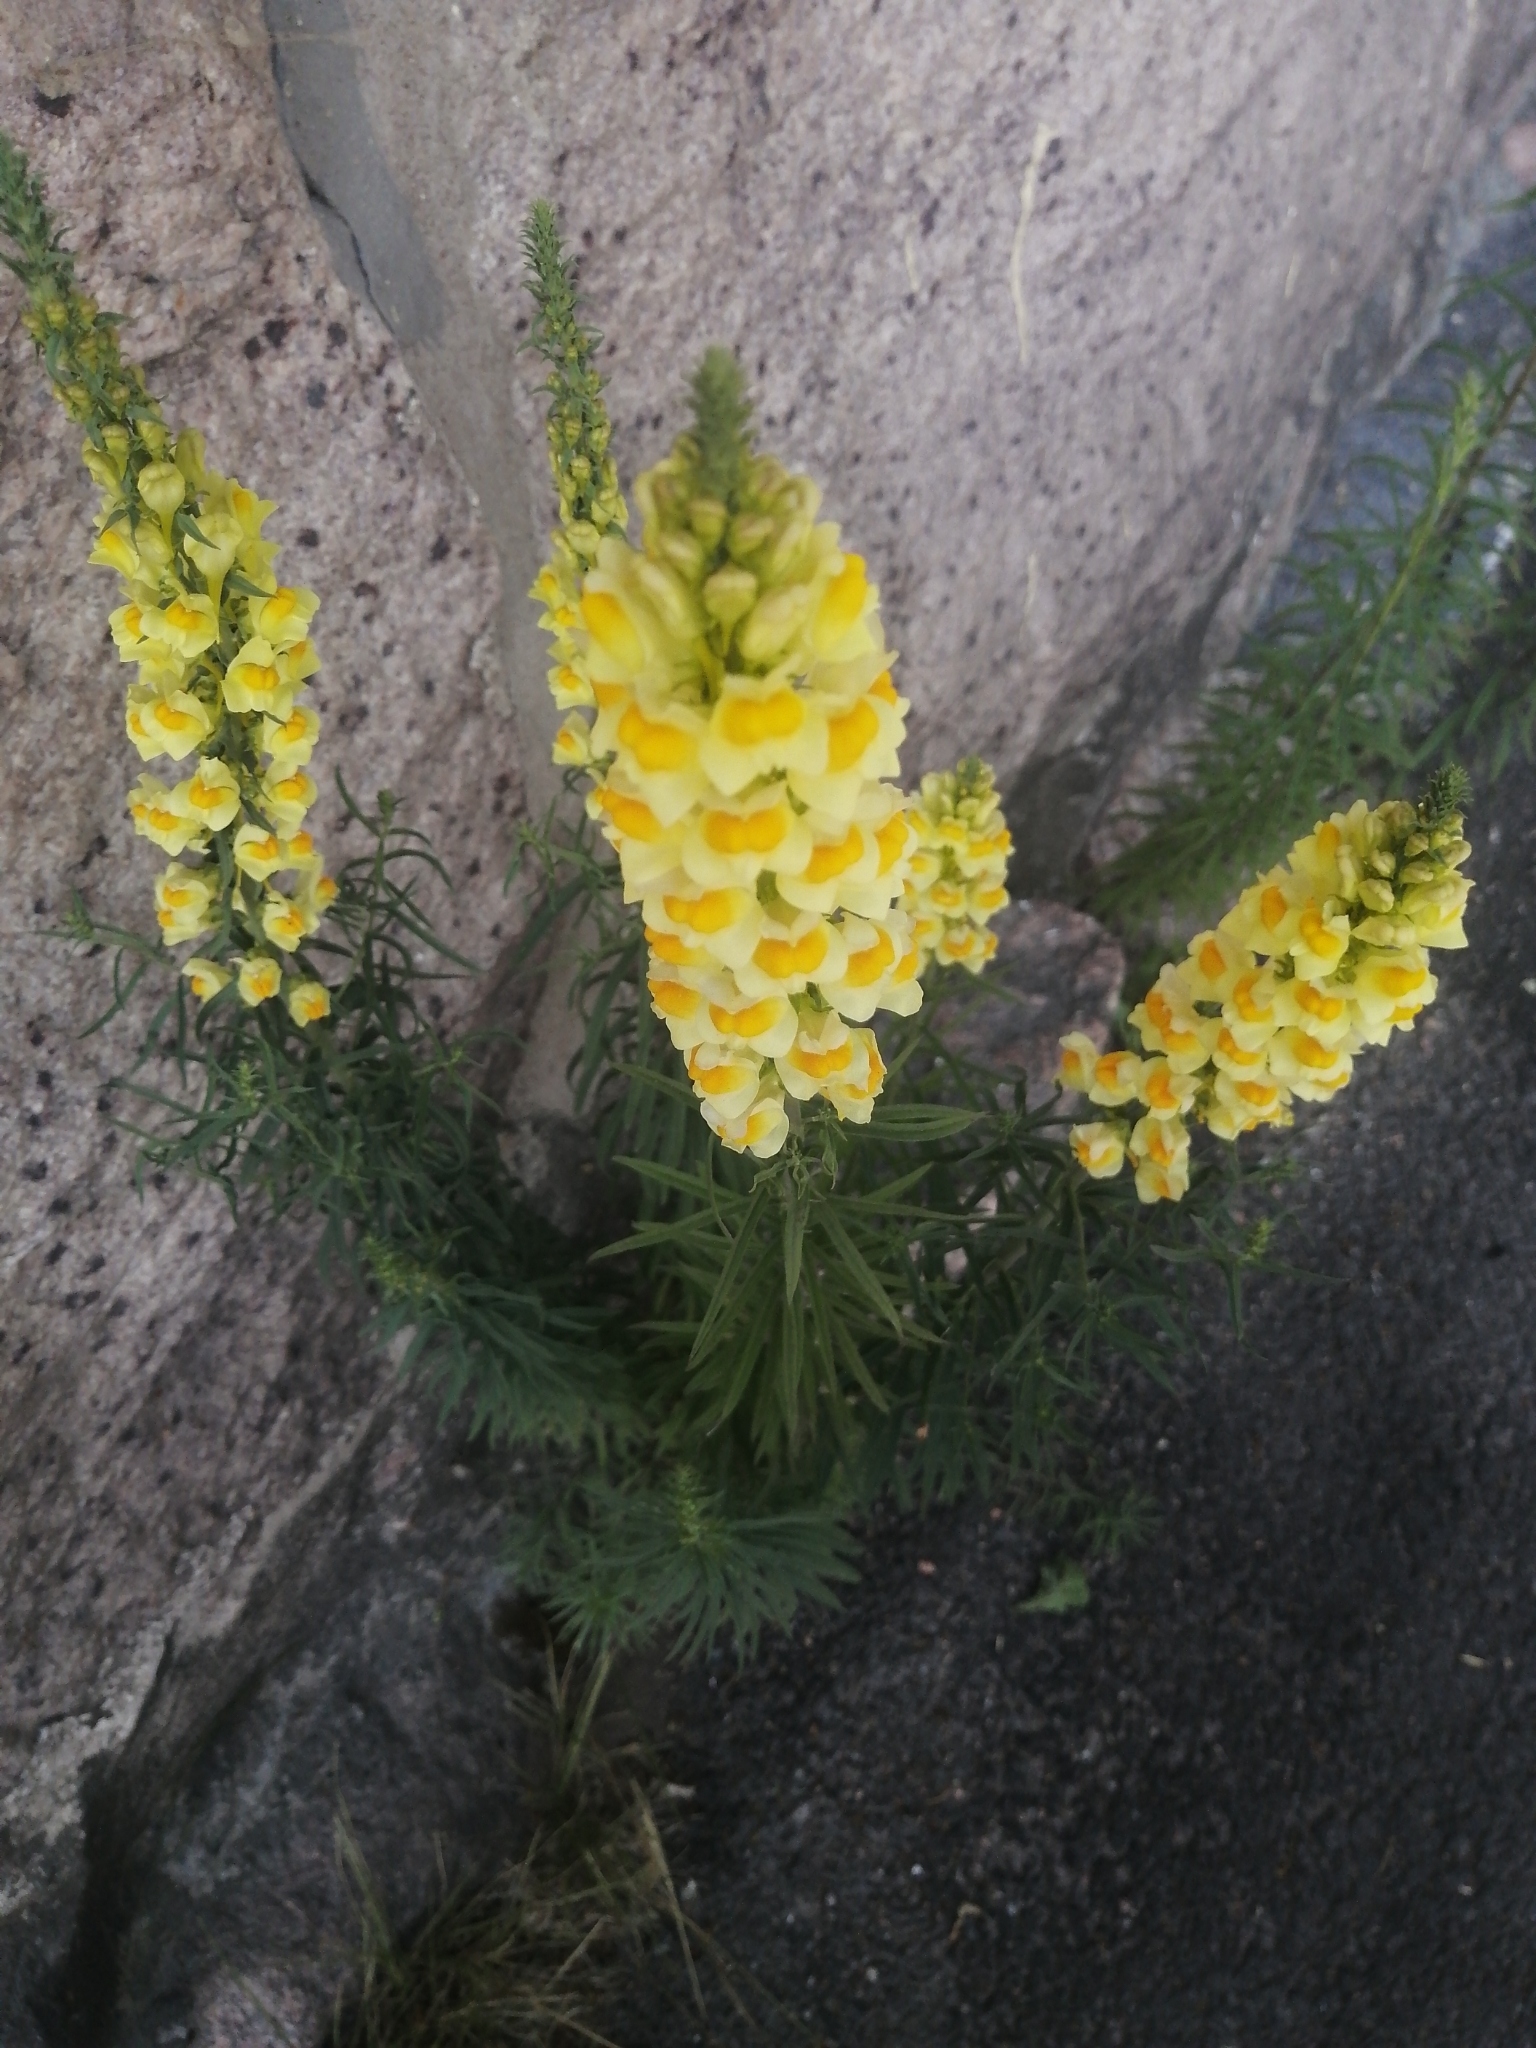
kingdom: Plantae
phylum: Tracheophyta
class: Magnoliopsida
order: Lamiales
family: Plantaginaceae
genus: Linaria
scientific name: Linaria vulgaris
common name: Butter and eggs
